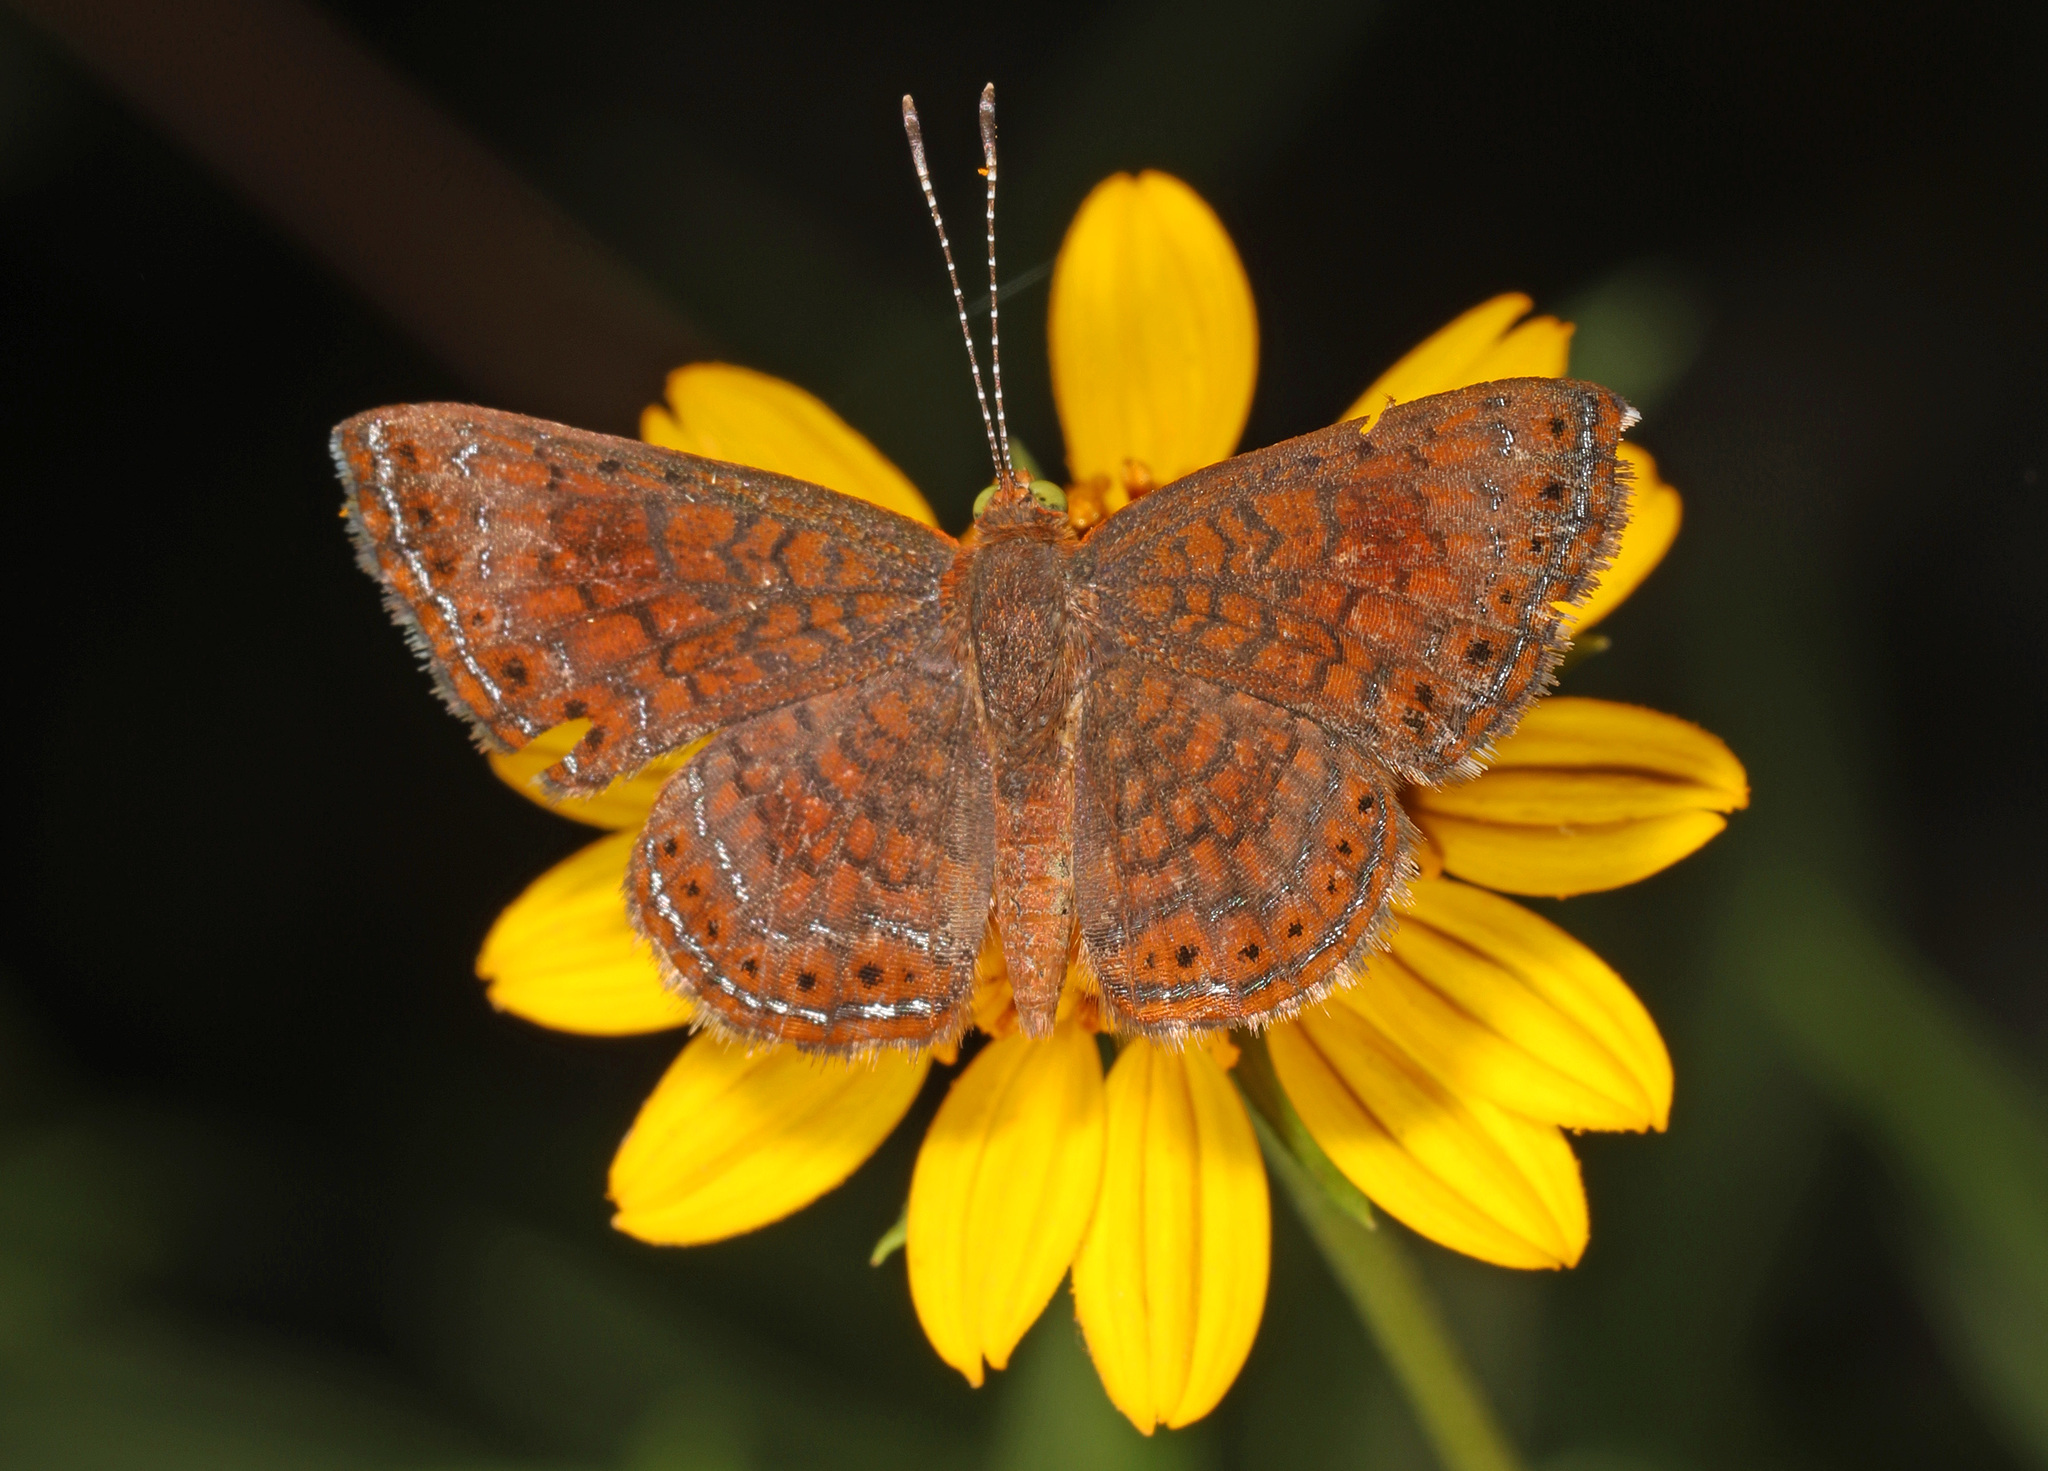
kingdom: Animalia
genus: Calephelis
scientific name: Calephelis nemesis
